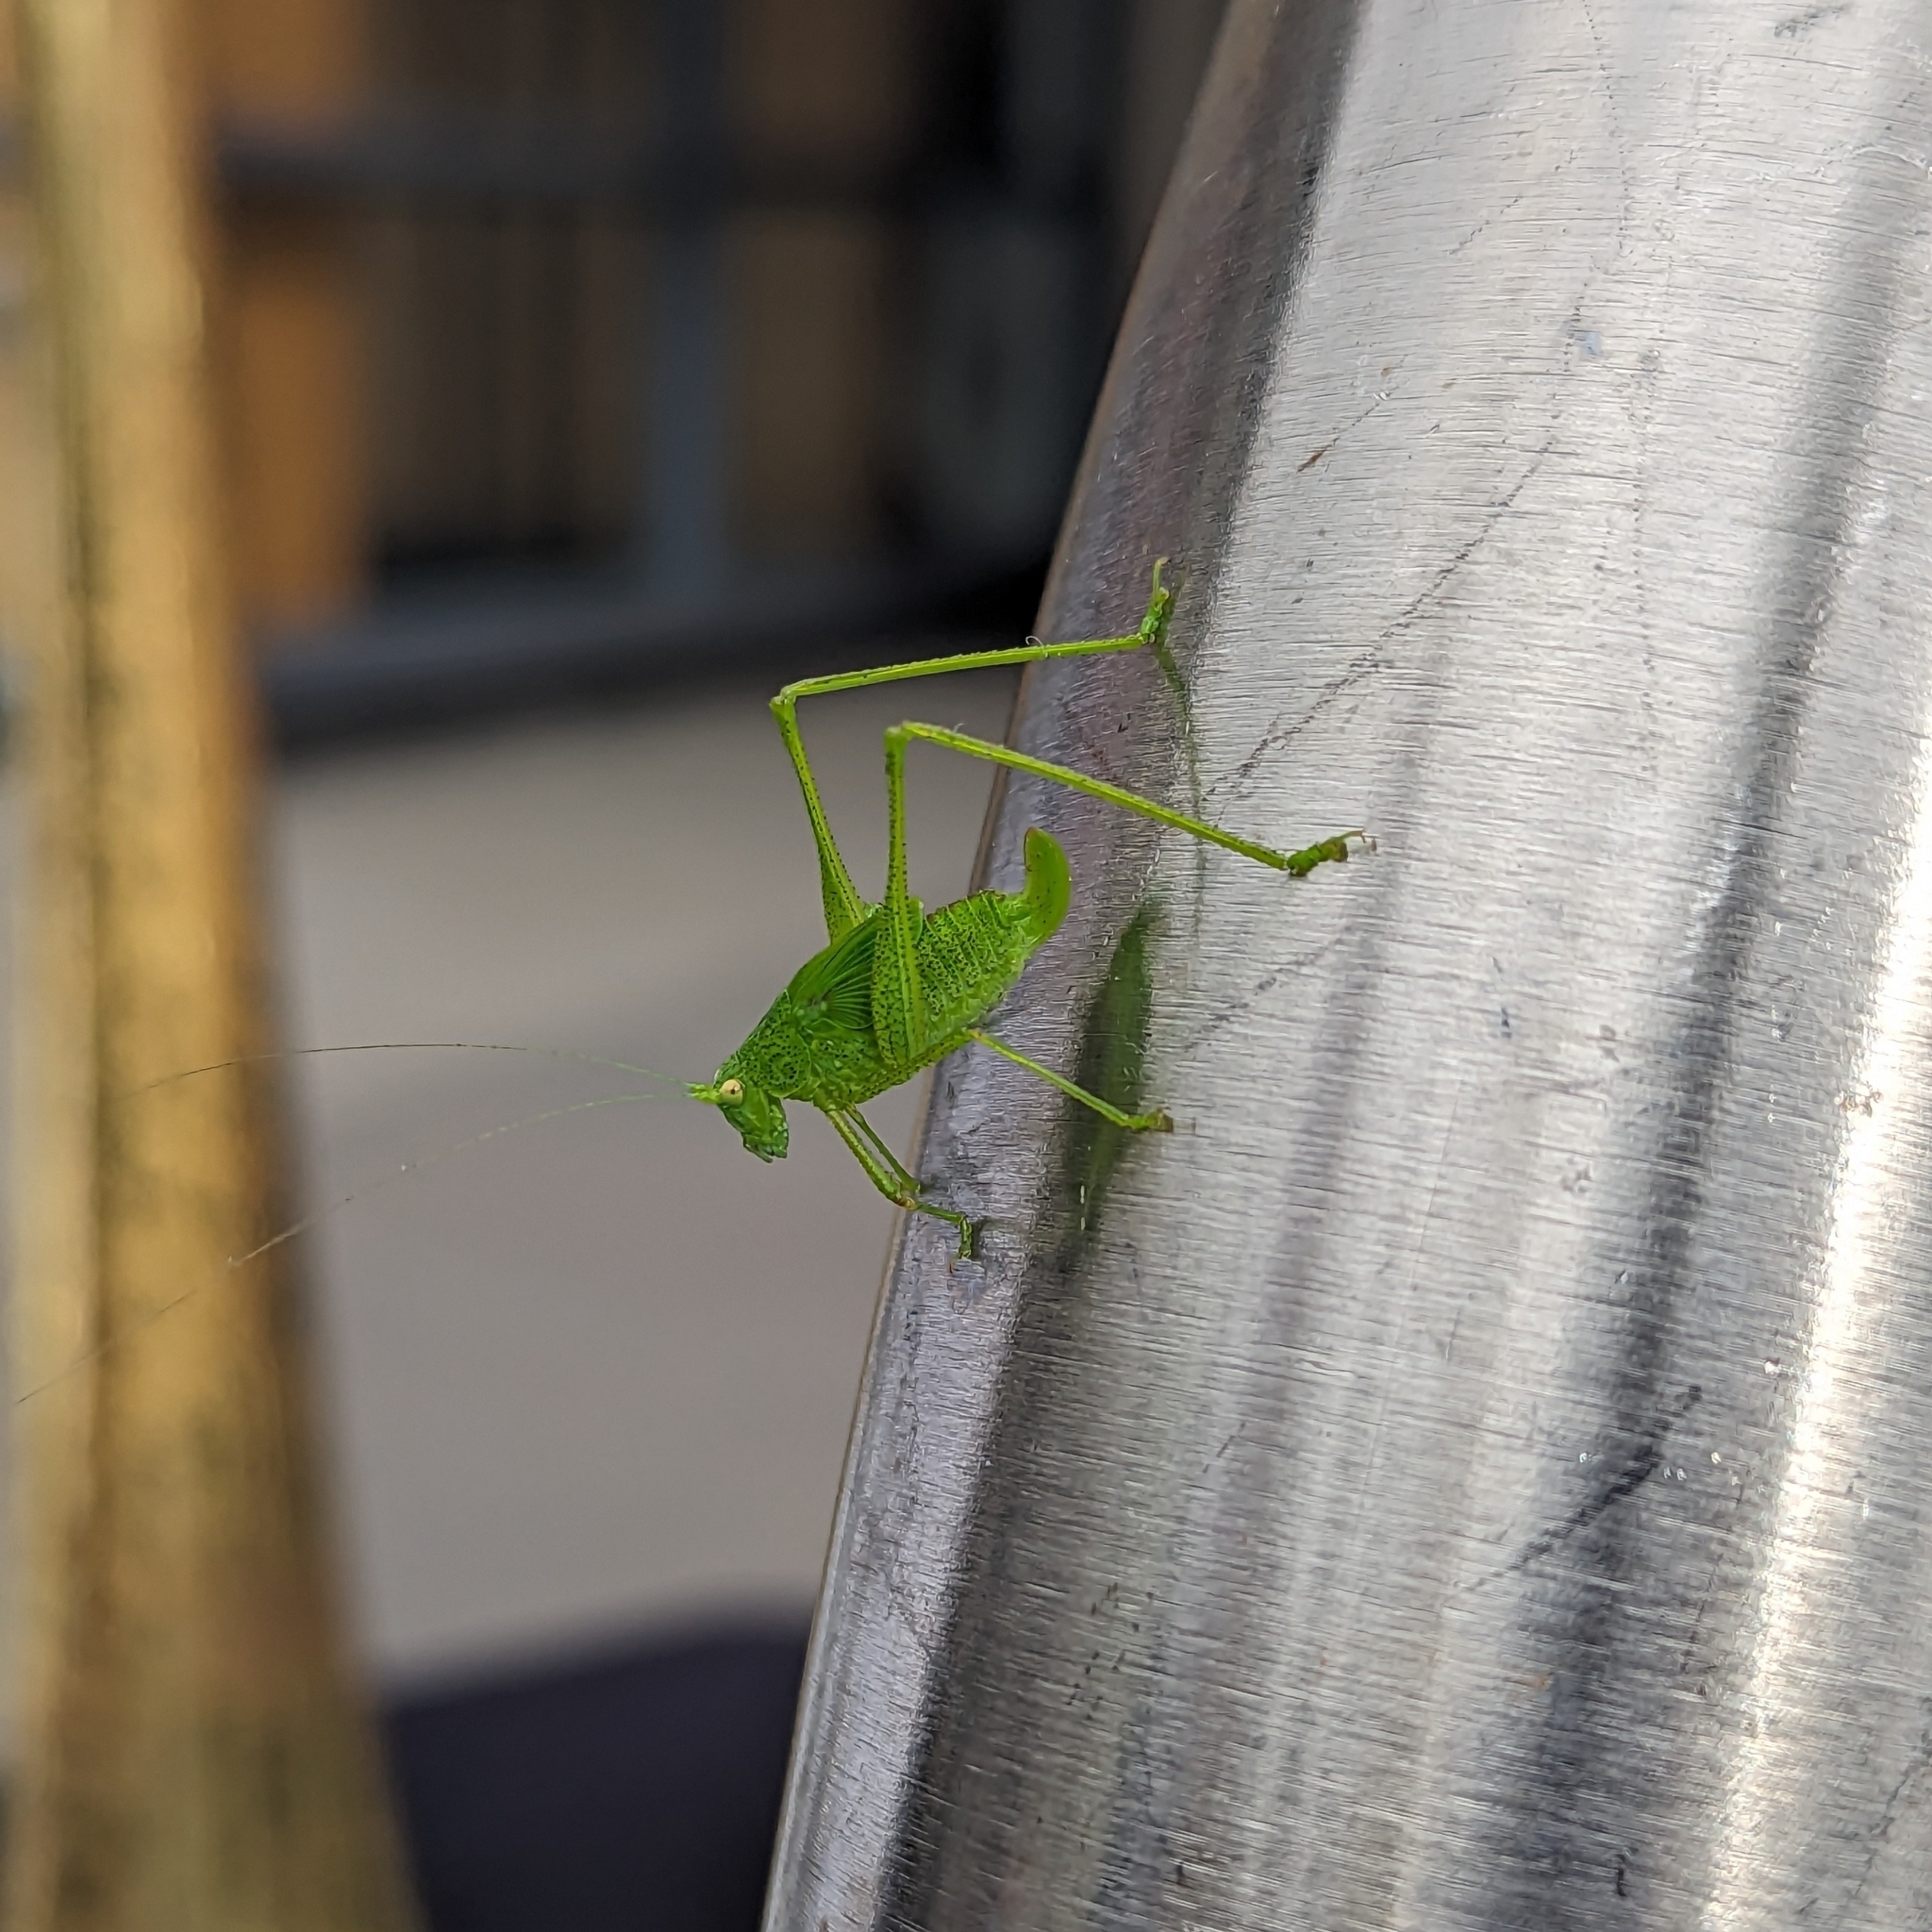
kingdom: Animalia
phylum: Arthropoda
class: Insecta
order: Orthoptera
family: Tettigoniidae
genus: Phaneroptera
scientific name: Phaneroptera nana
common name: Southern sickle bush-cricket
